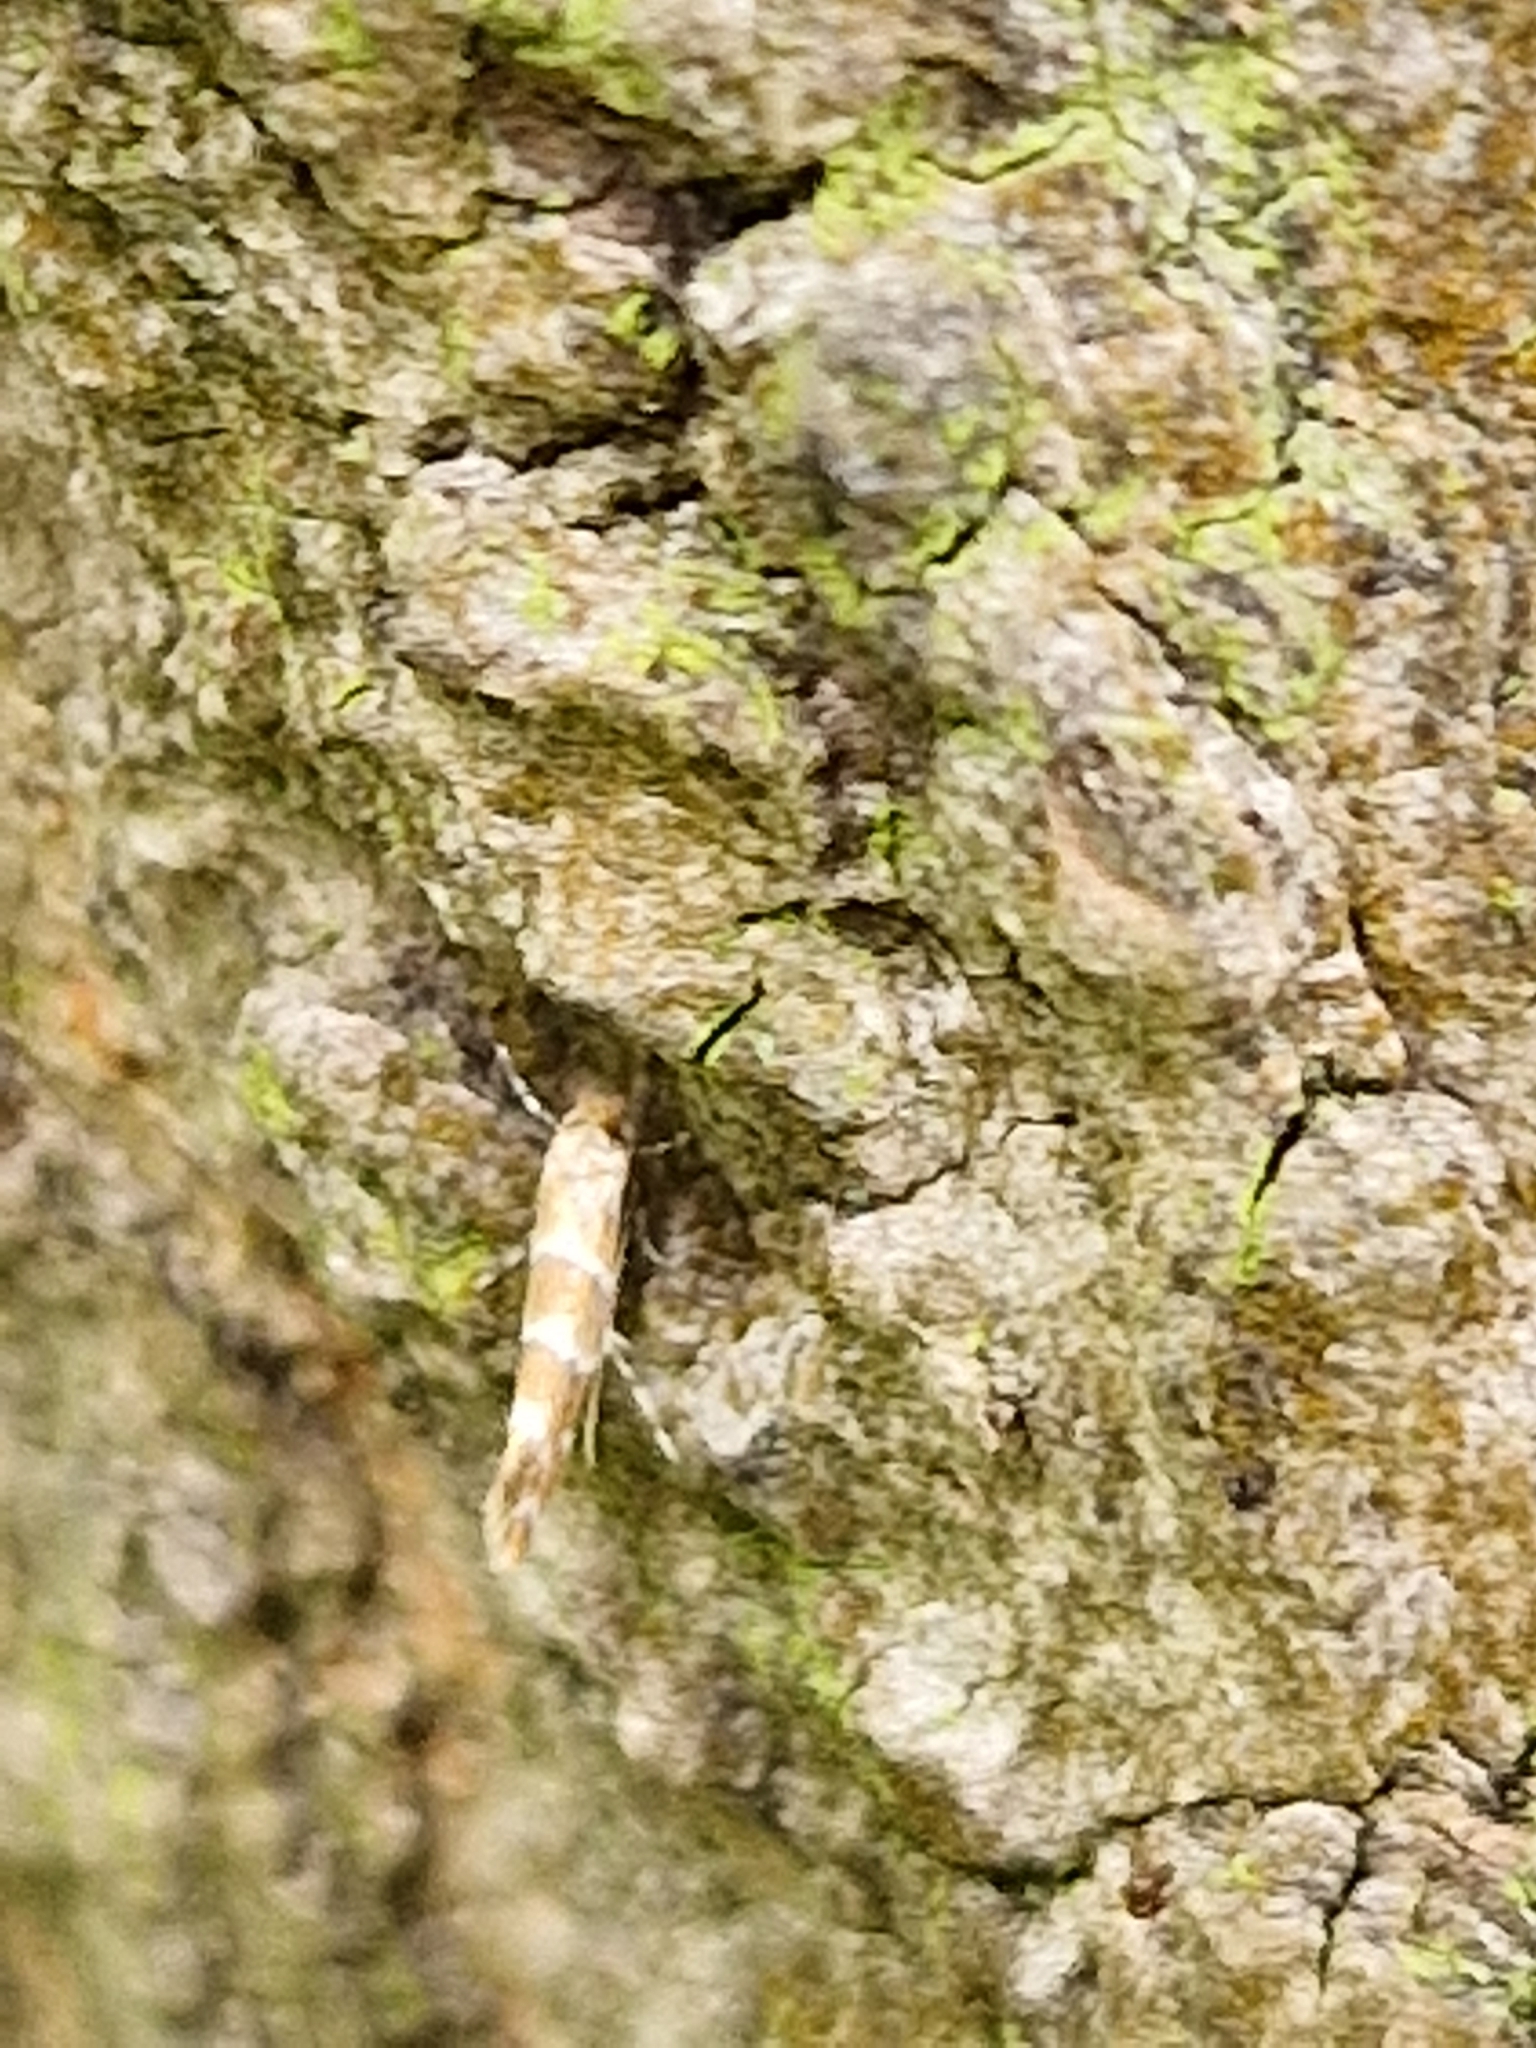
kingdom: Animalia
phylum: Arthropoda
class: Insecta
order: Lepidoptera
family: Gracillariidae
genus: Cameraria
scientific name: Cameraria ohridella
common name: Horse-chestnut leaf-miner
